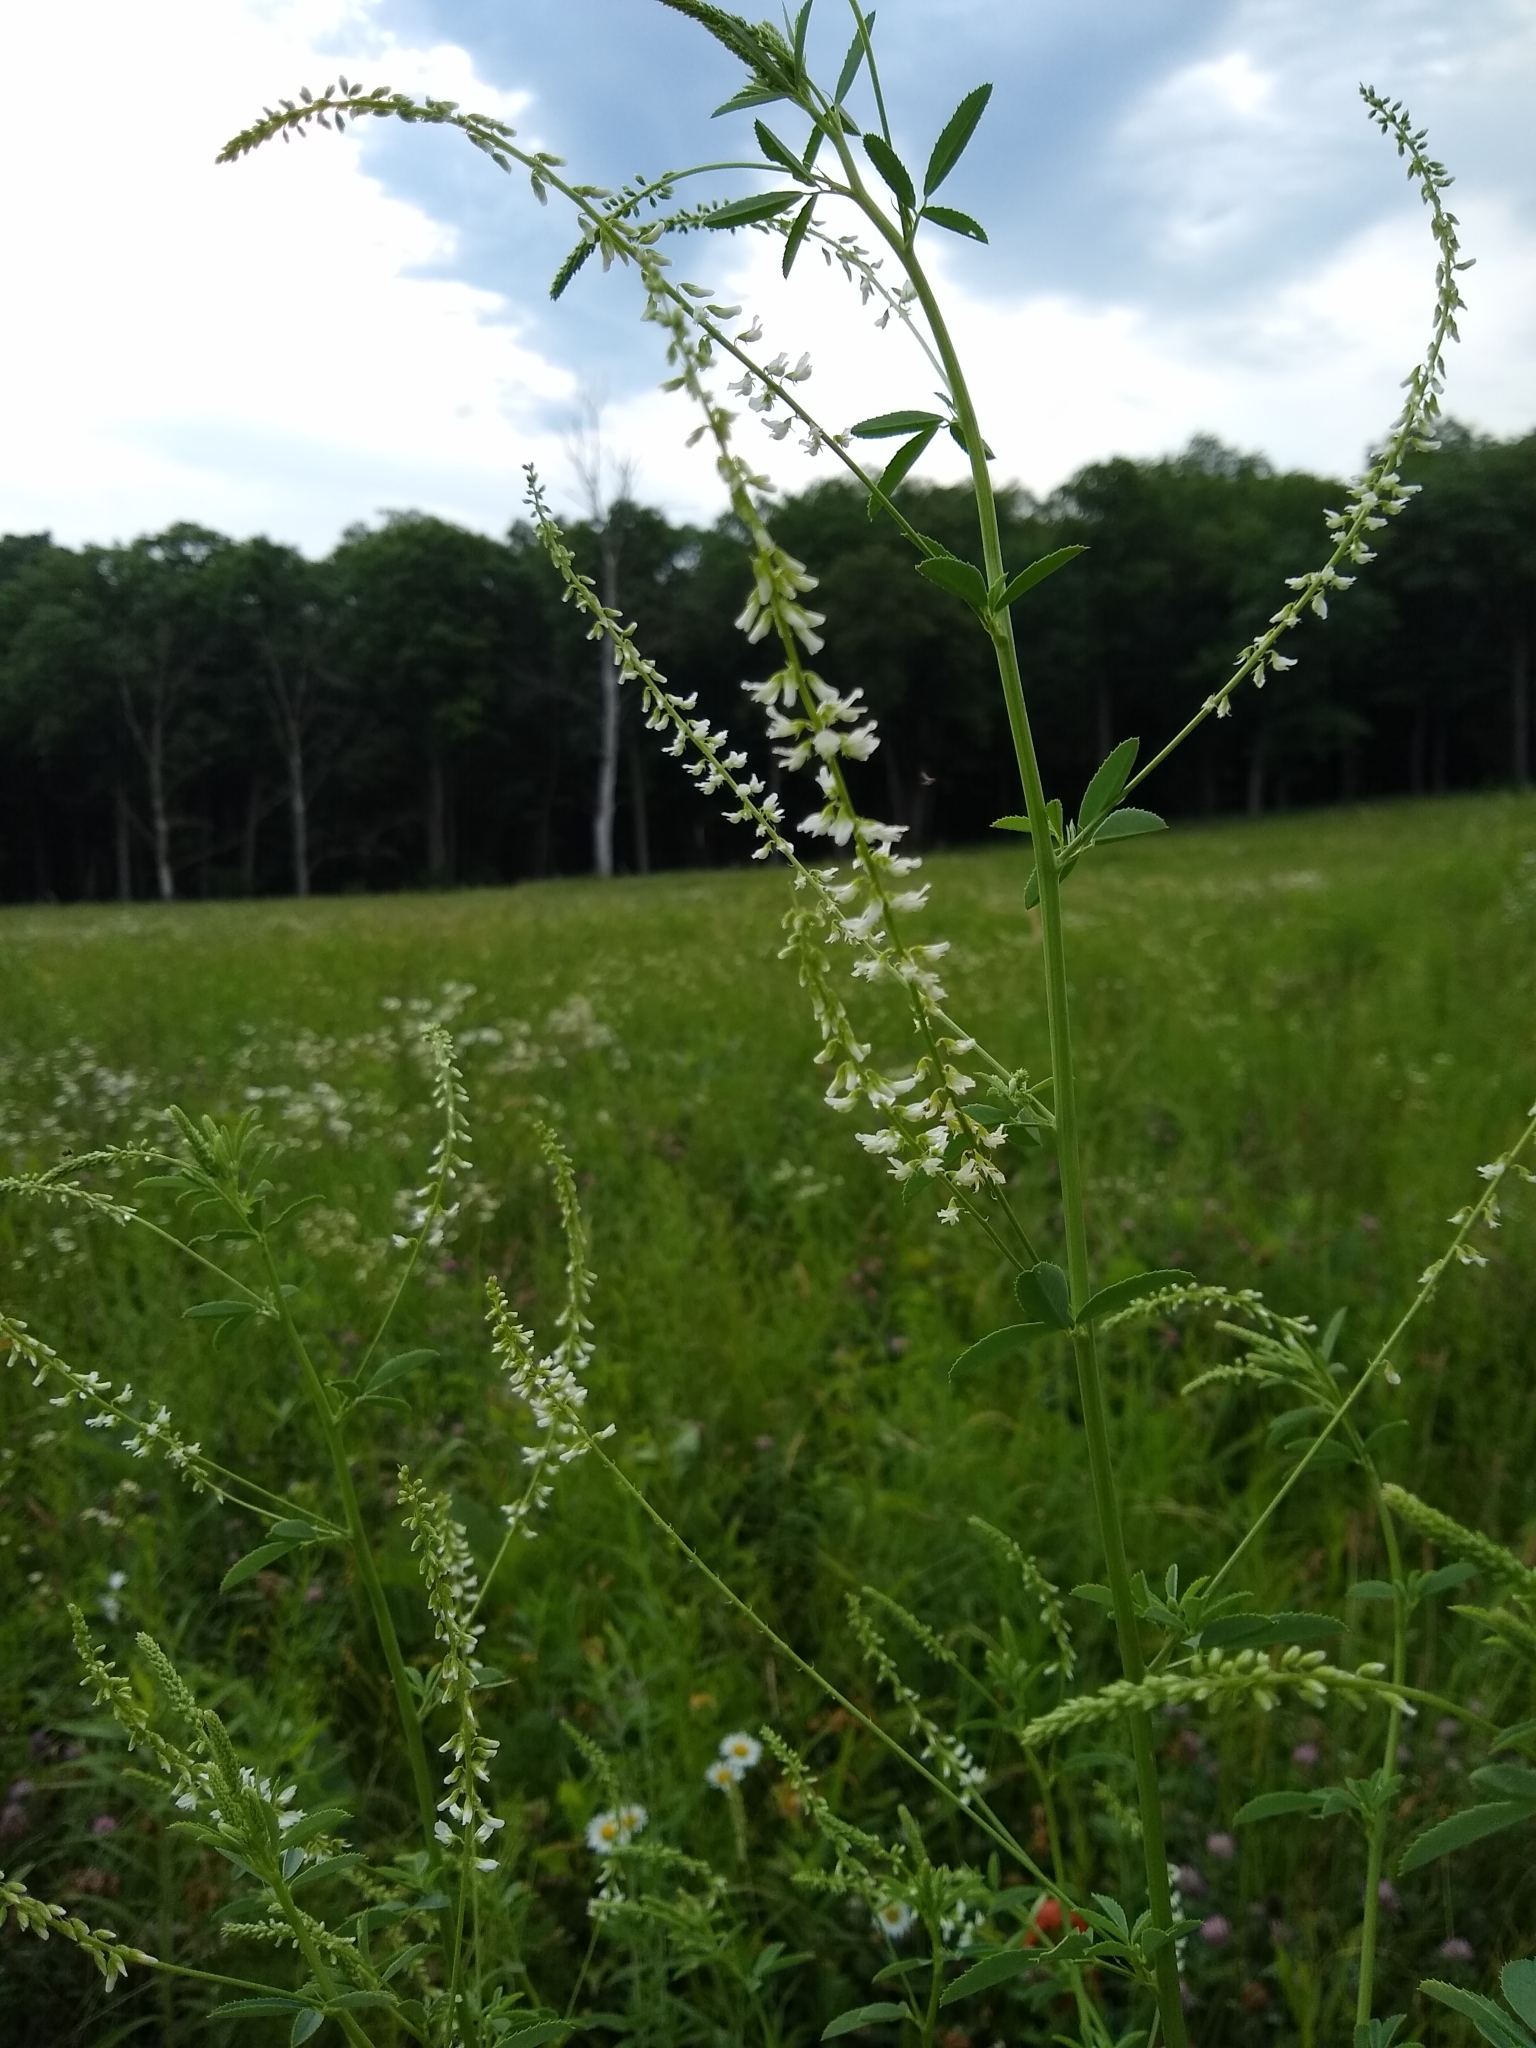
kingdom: Plantae
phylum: Tracheophyta
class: Magnoliopsida
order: Fabales
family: Fabaceae
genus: Melilotus
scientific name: Melilotus albus
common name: White melilot
